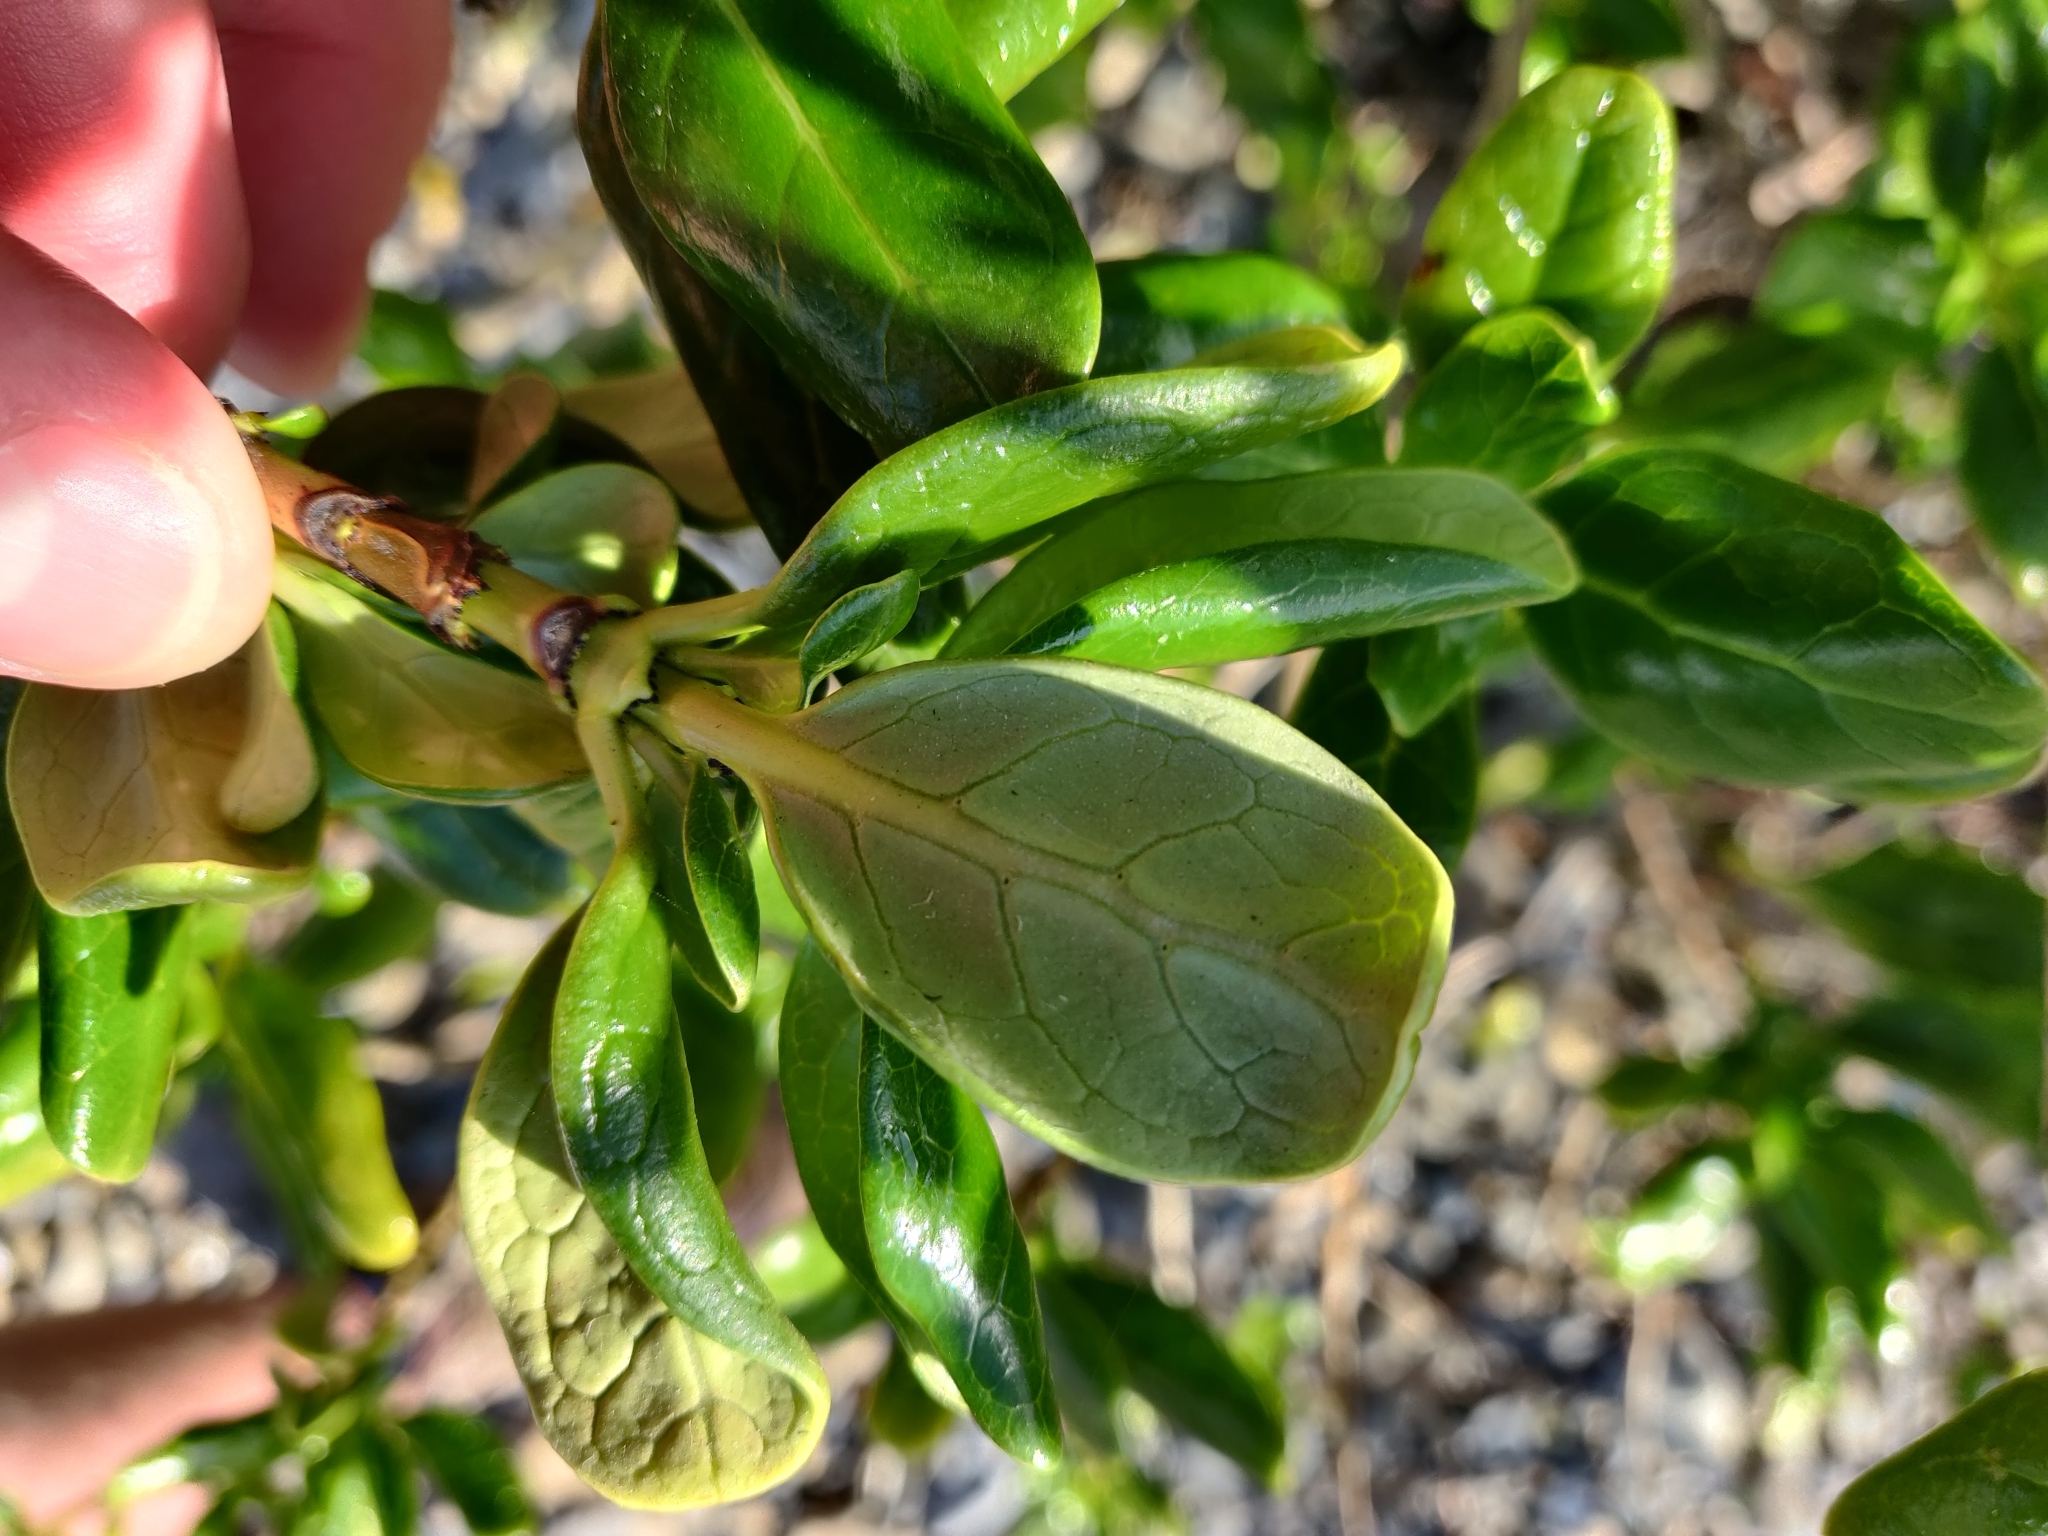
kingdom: Plantae
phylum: Tracheophyta
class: Magnoliopsida
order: Gentianales
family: Rubiaceae
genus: Coprosma
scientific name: Coprosma repens
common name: Tree bedstraw
